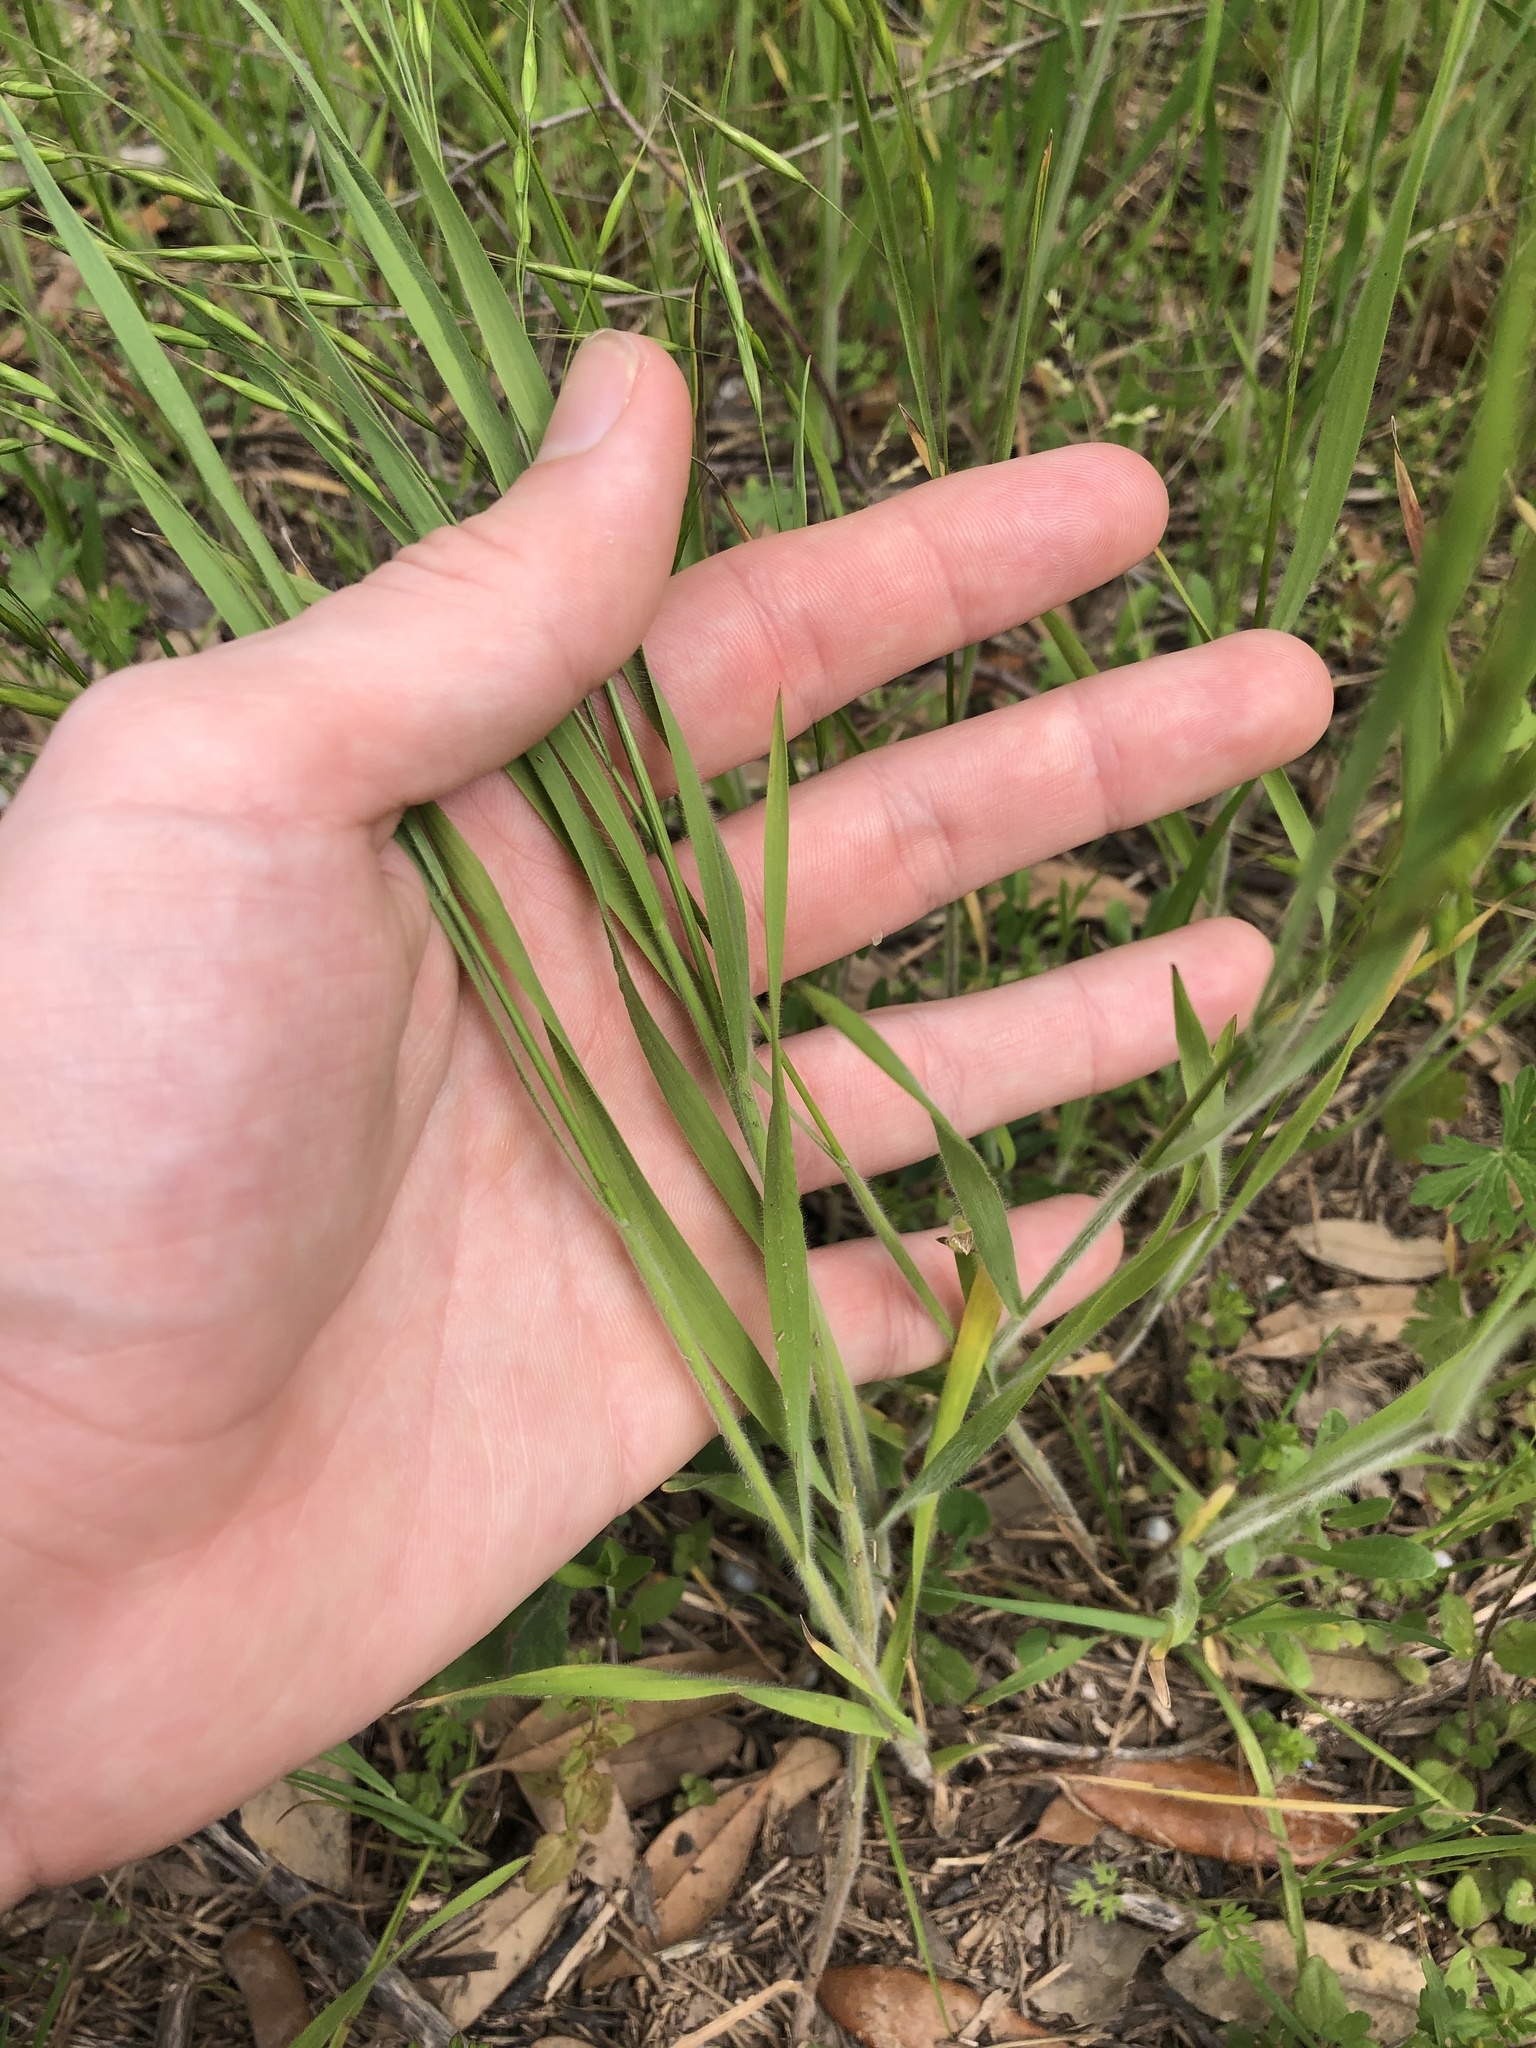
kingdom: Plantae
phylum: Tracheophyta
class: Liliopsida
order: Poales
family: Poaceae
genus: Bromus
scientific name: Bromus japonicus
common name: Japanese brome
